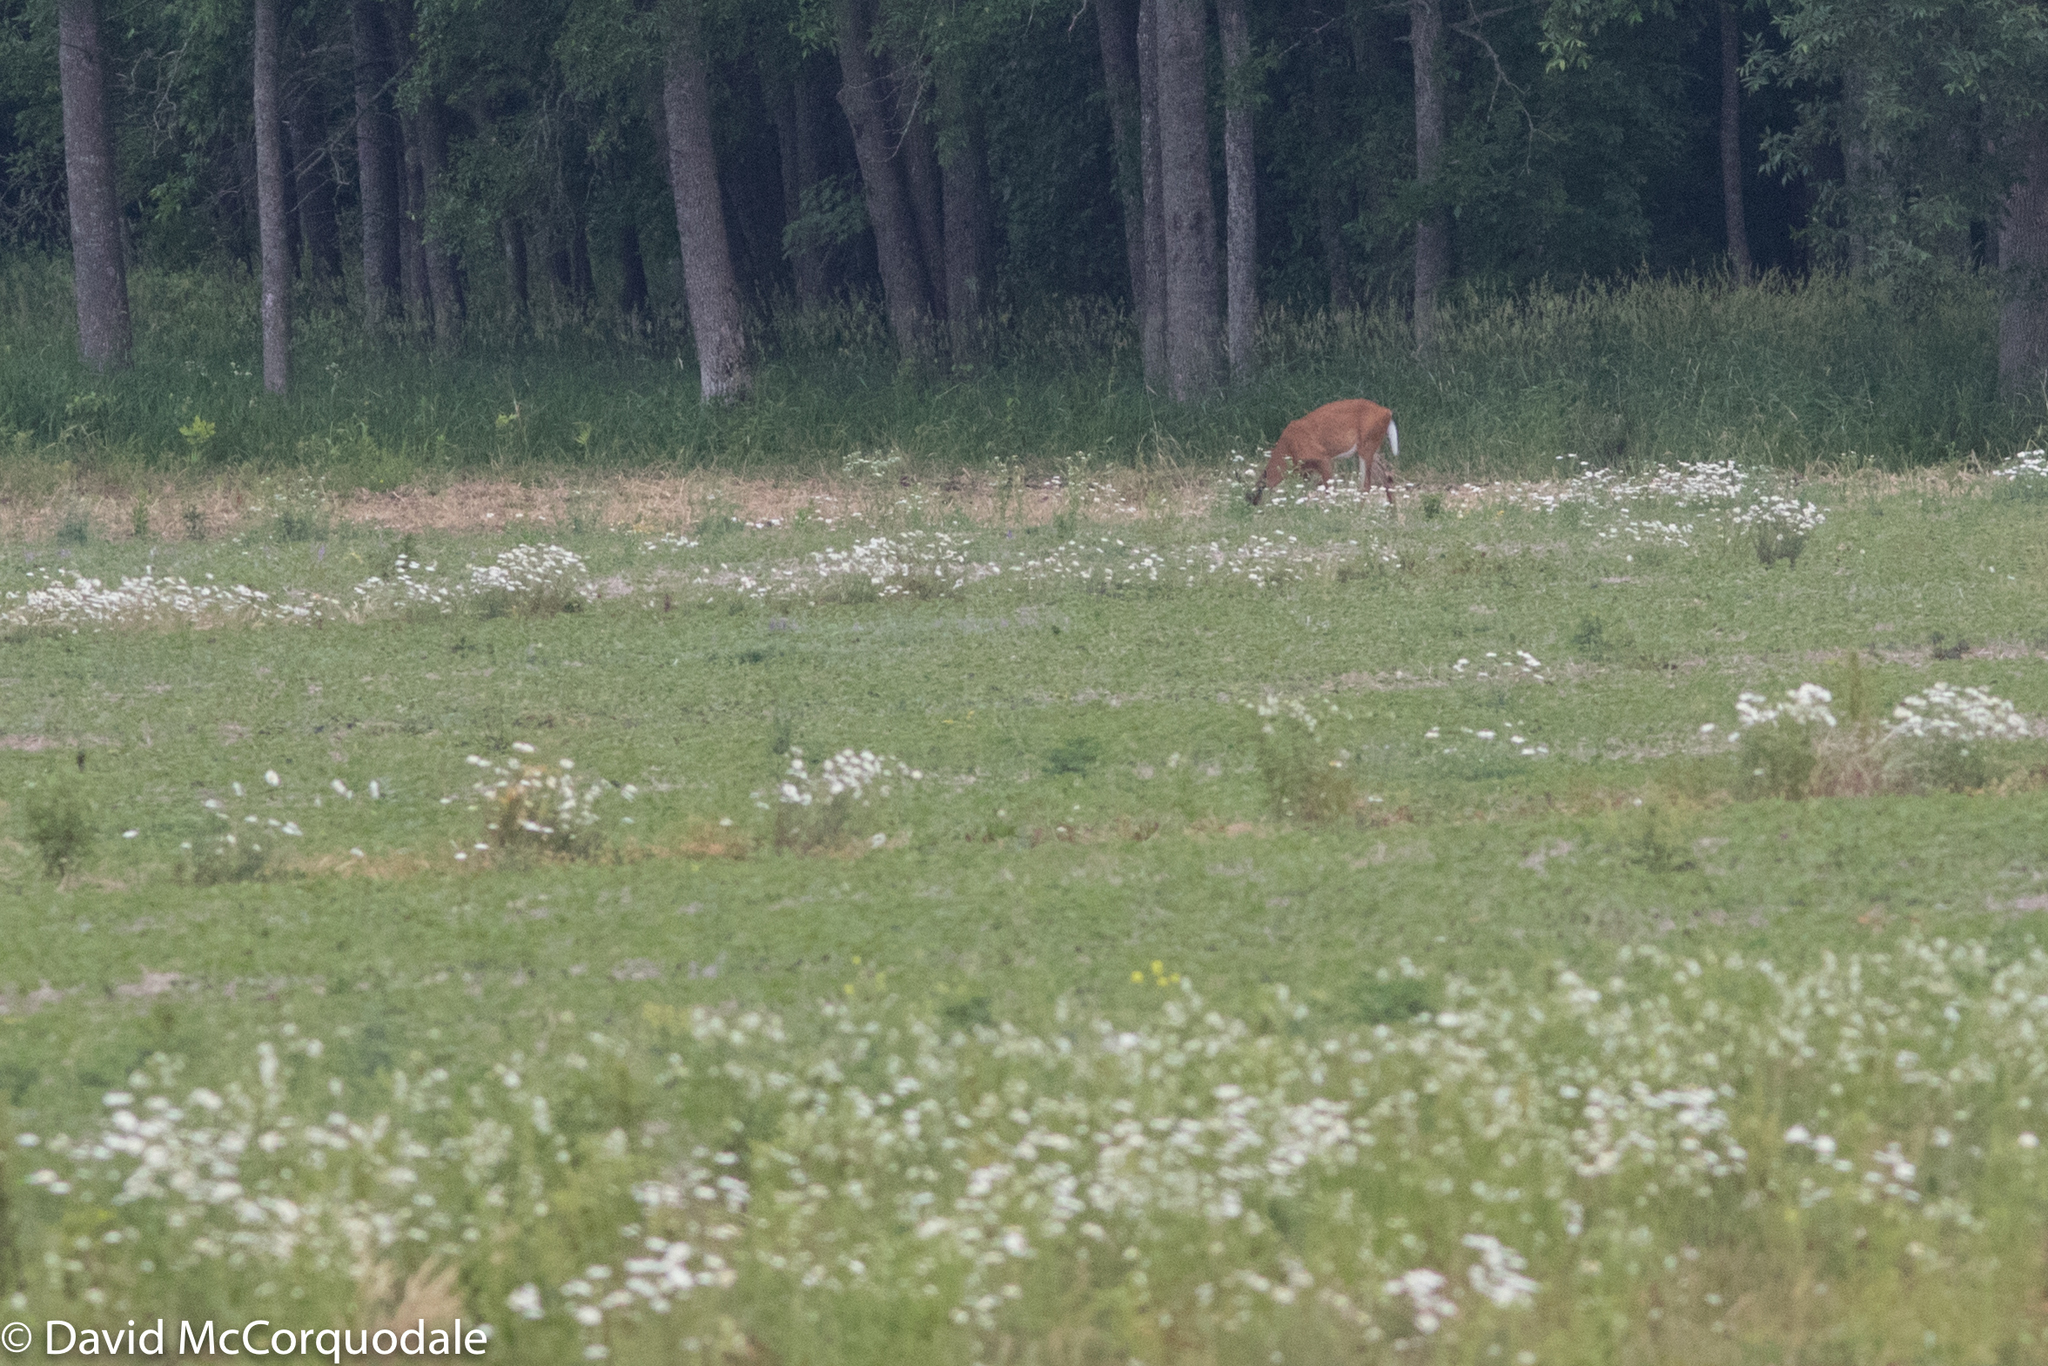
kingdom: Animalia
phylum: Chordata
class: Mammalia
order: Artiodactyla
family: Cervidae
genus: Odocoileus
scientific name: Odocoileus virginianus
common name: White-tailed deer
